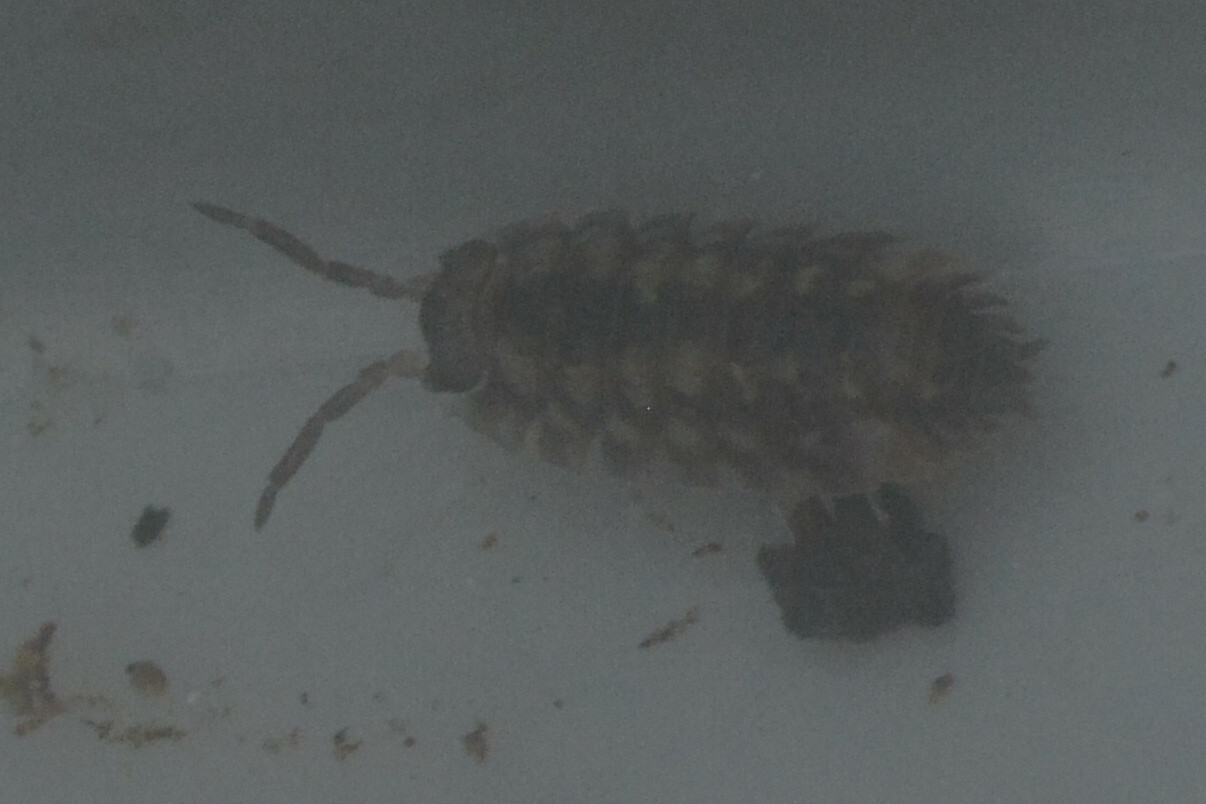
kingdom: Animalia
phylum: Arthropoda
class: Malacostraca
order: Isopoda
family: Oniscidae
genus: Oniscus
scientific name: Oniscus asellus
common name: Common shiny woodlouse
